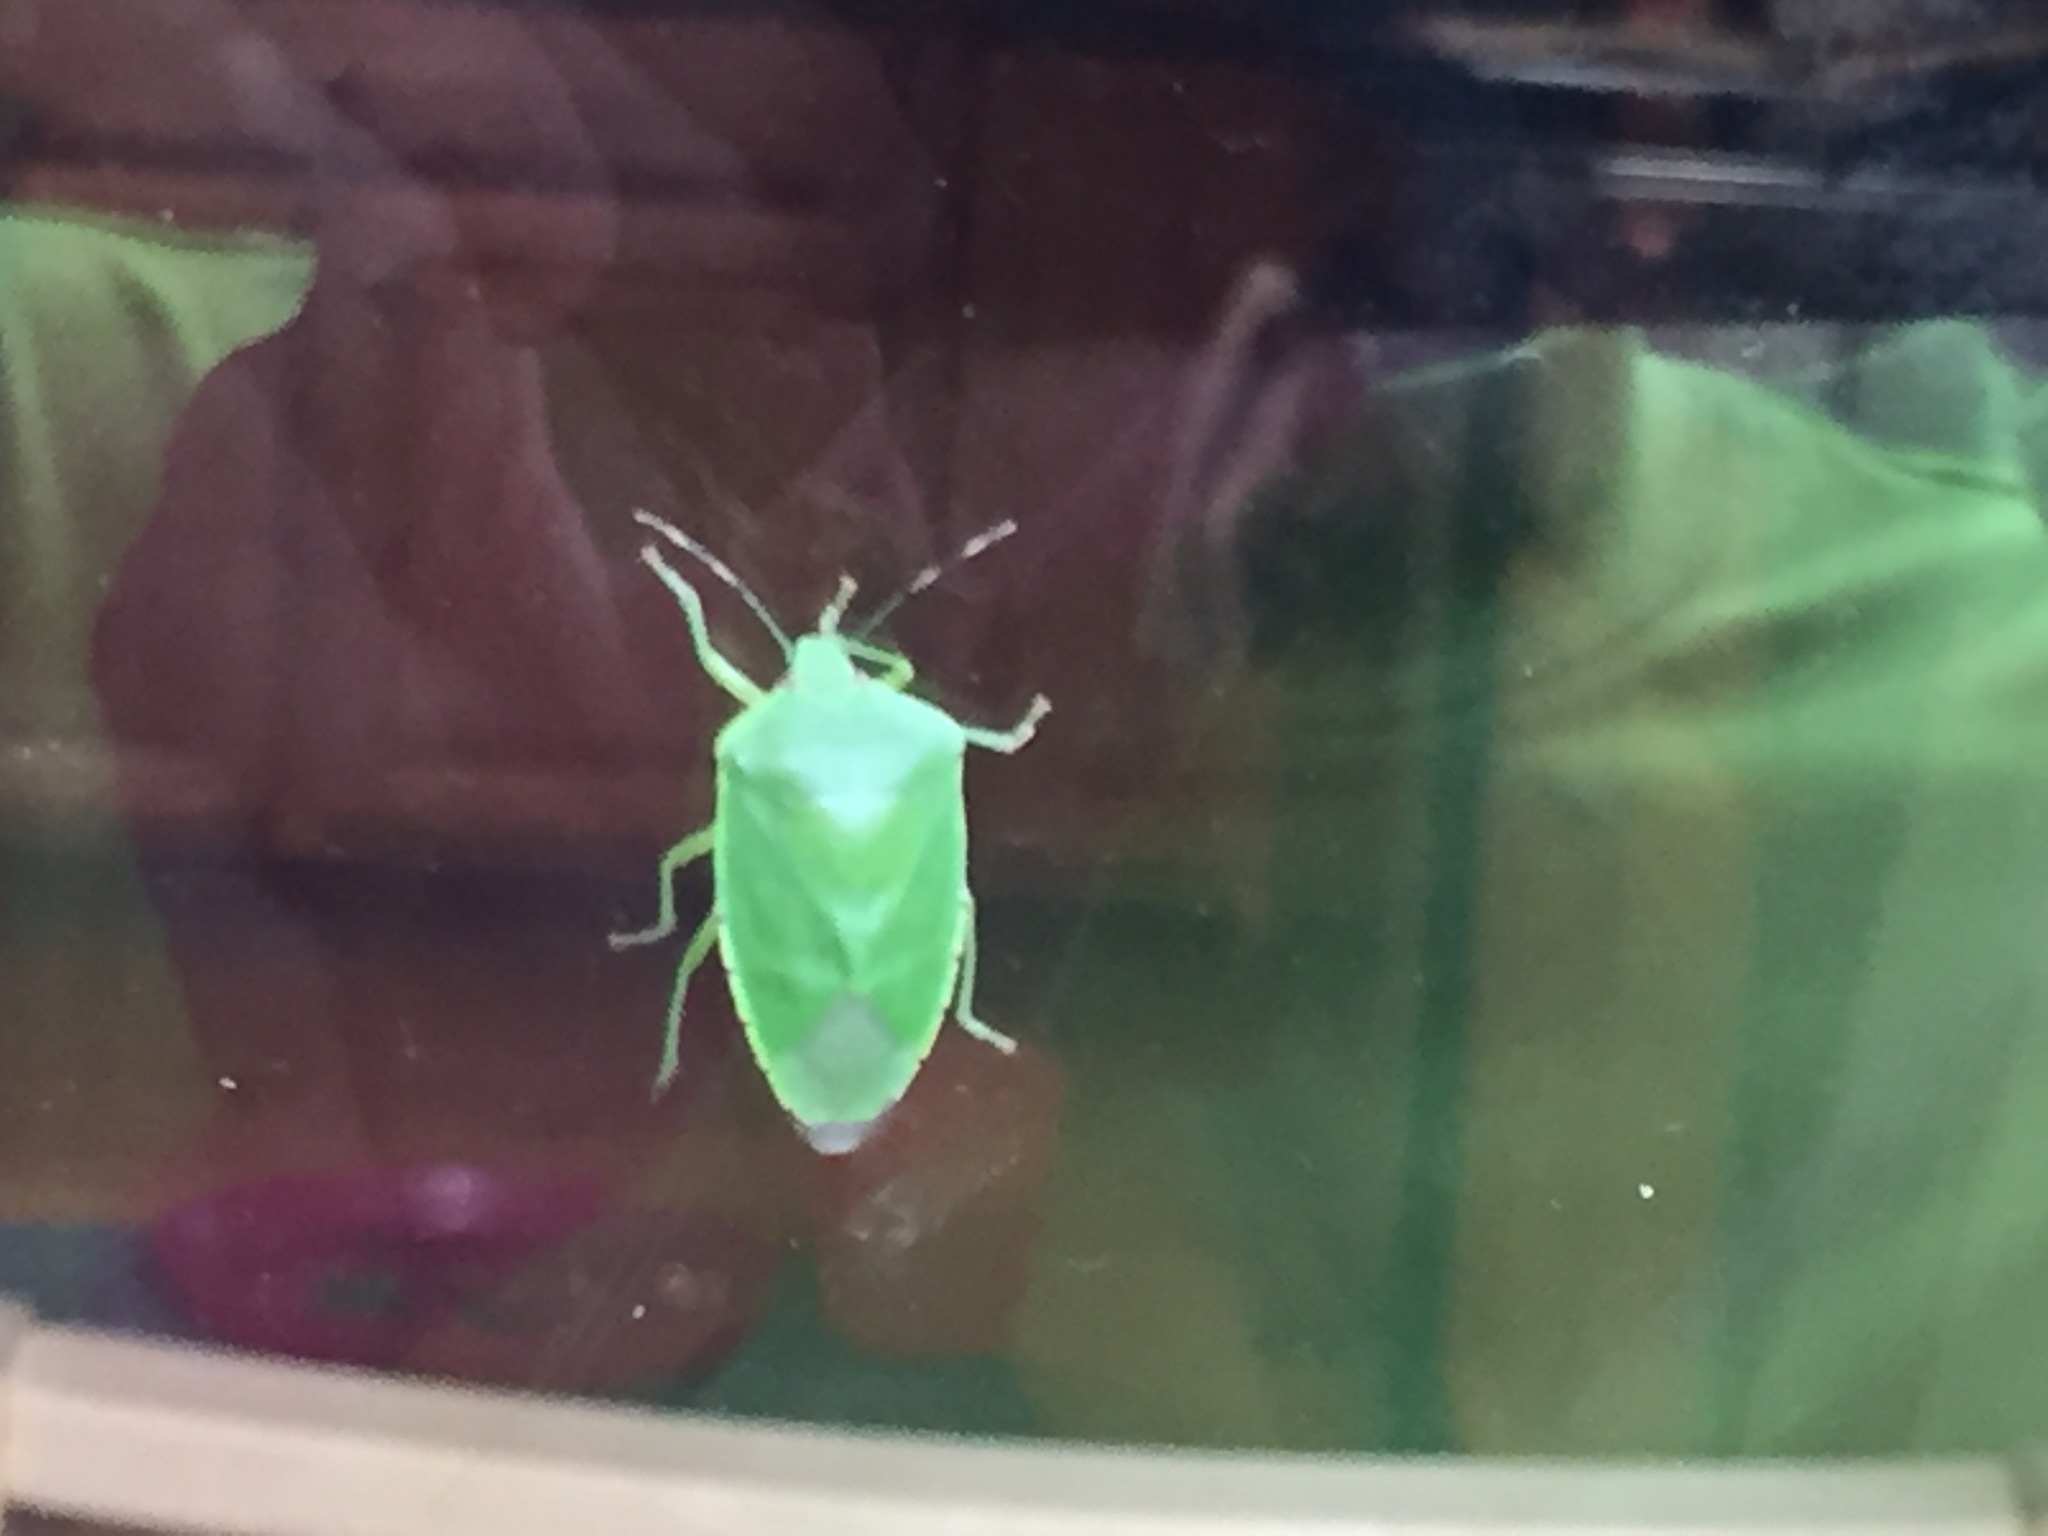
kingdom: Animalia
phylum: Arthropoda
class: Insecta
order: Hemiptera
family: Pentatomidae
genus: Chinavia
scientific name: Chinavia hilaris
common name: Green stink bug
